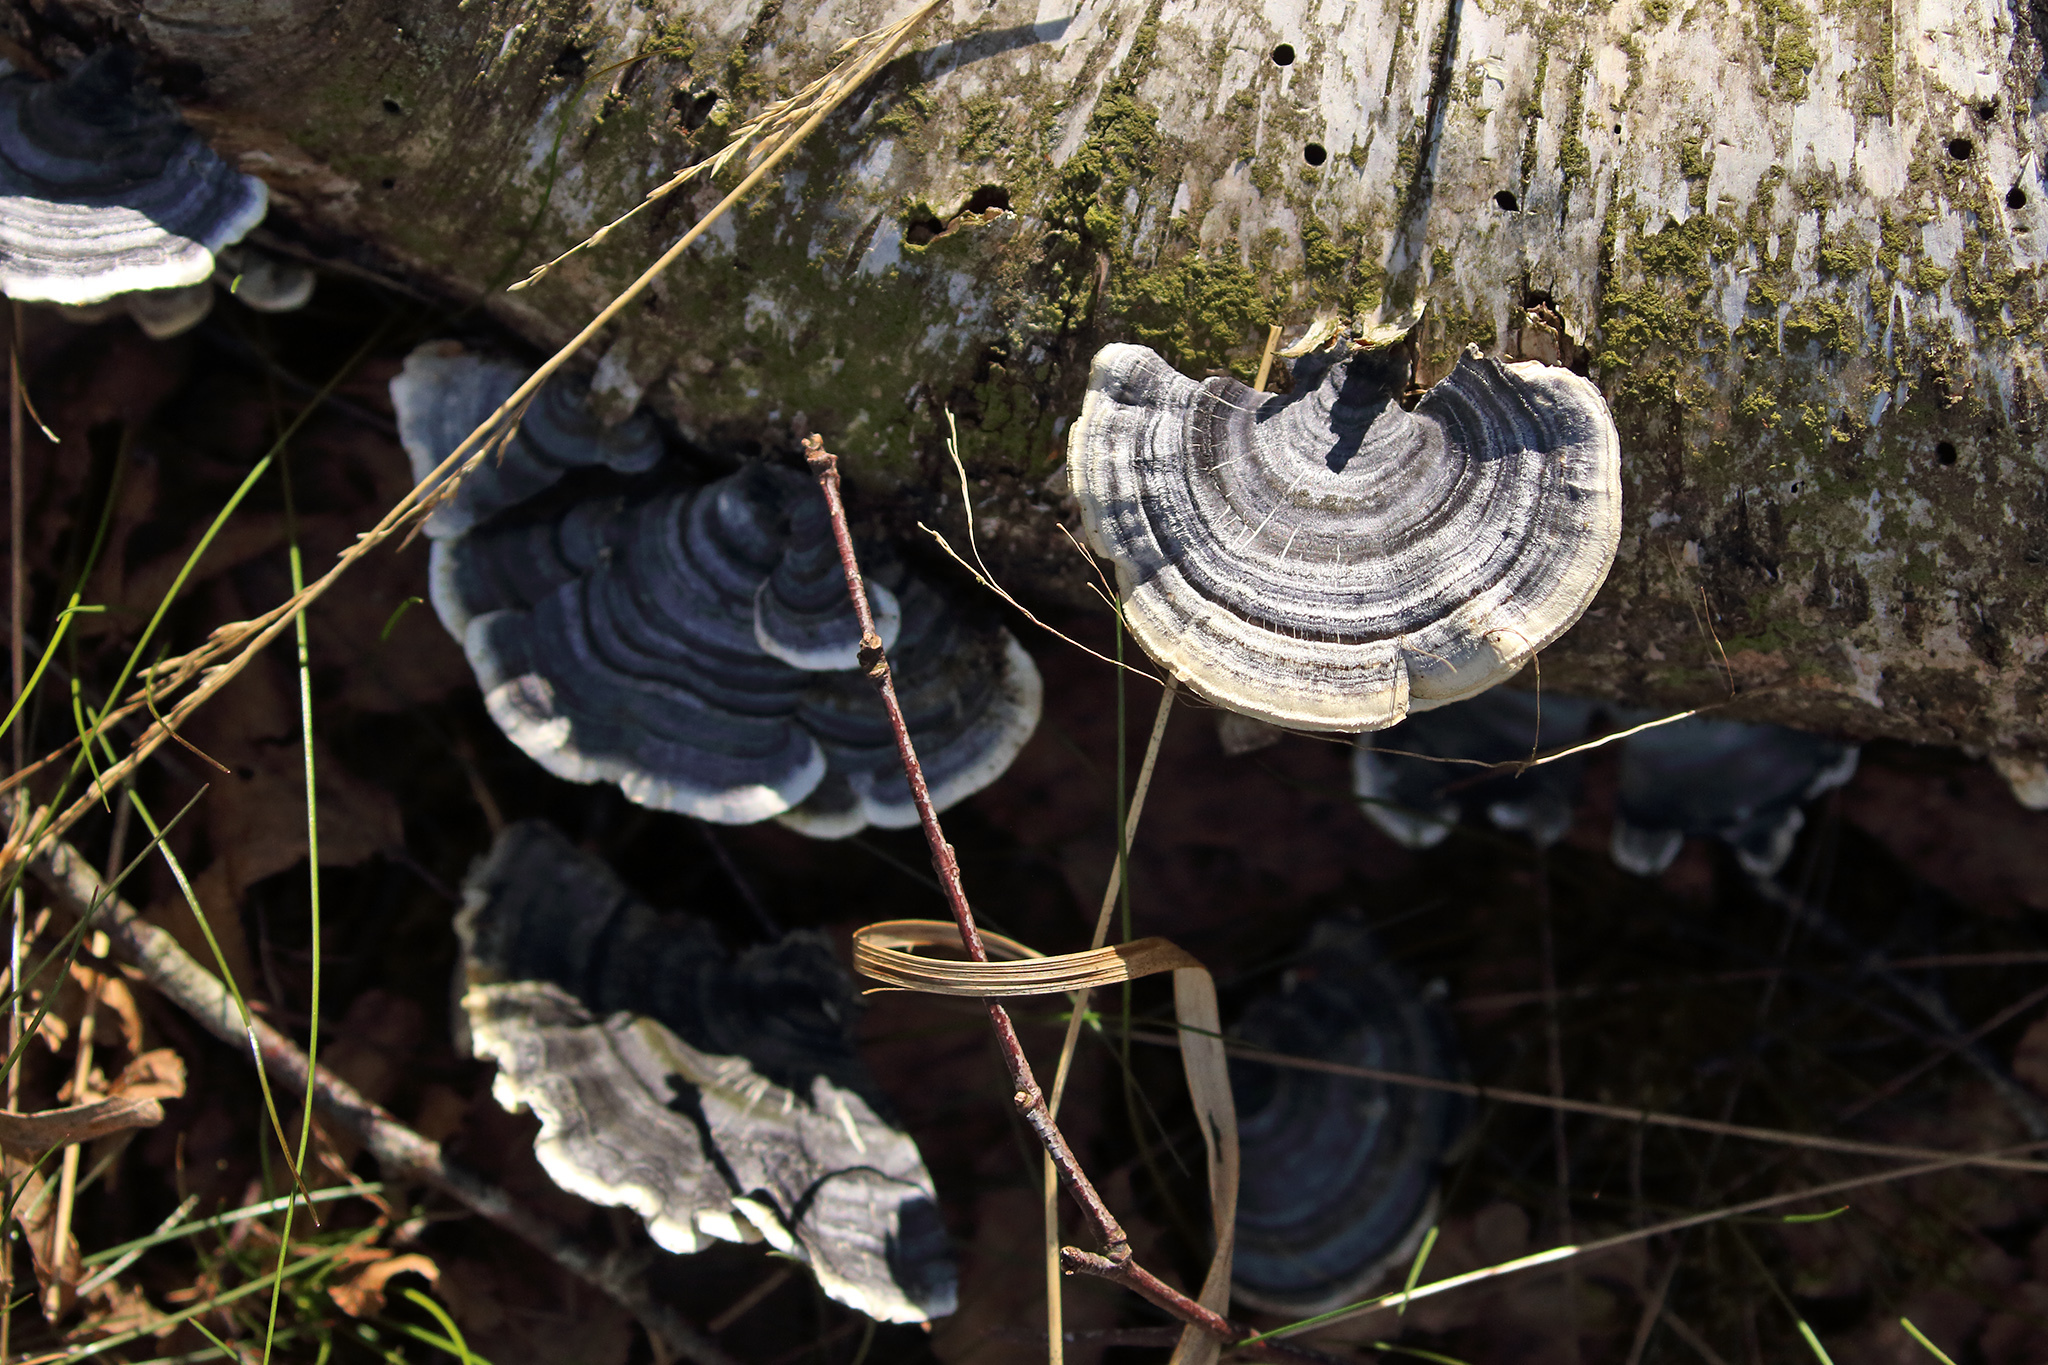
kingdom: Fungi
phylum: Basidiomycota
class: Agaricomycetes
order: Polyporales
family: Polyporaceae
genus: Trametes
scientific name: Trametes versicolor
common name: Turkeytail
